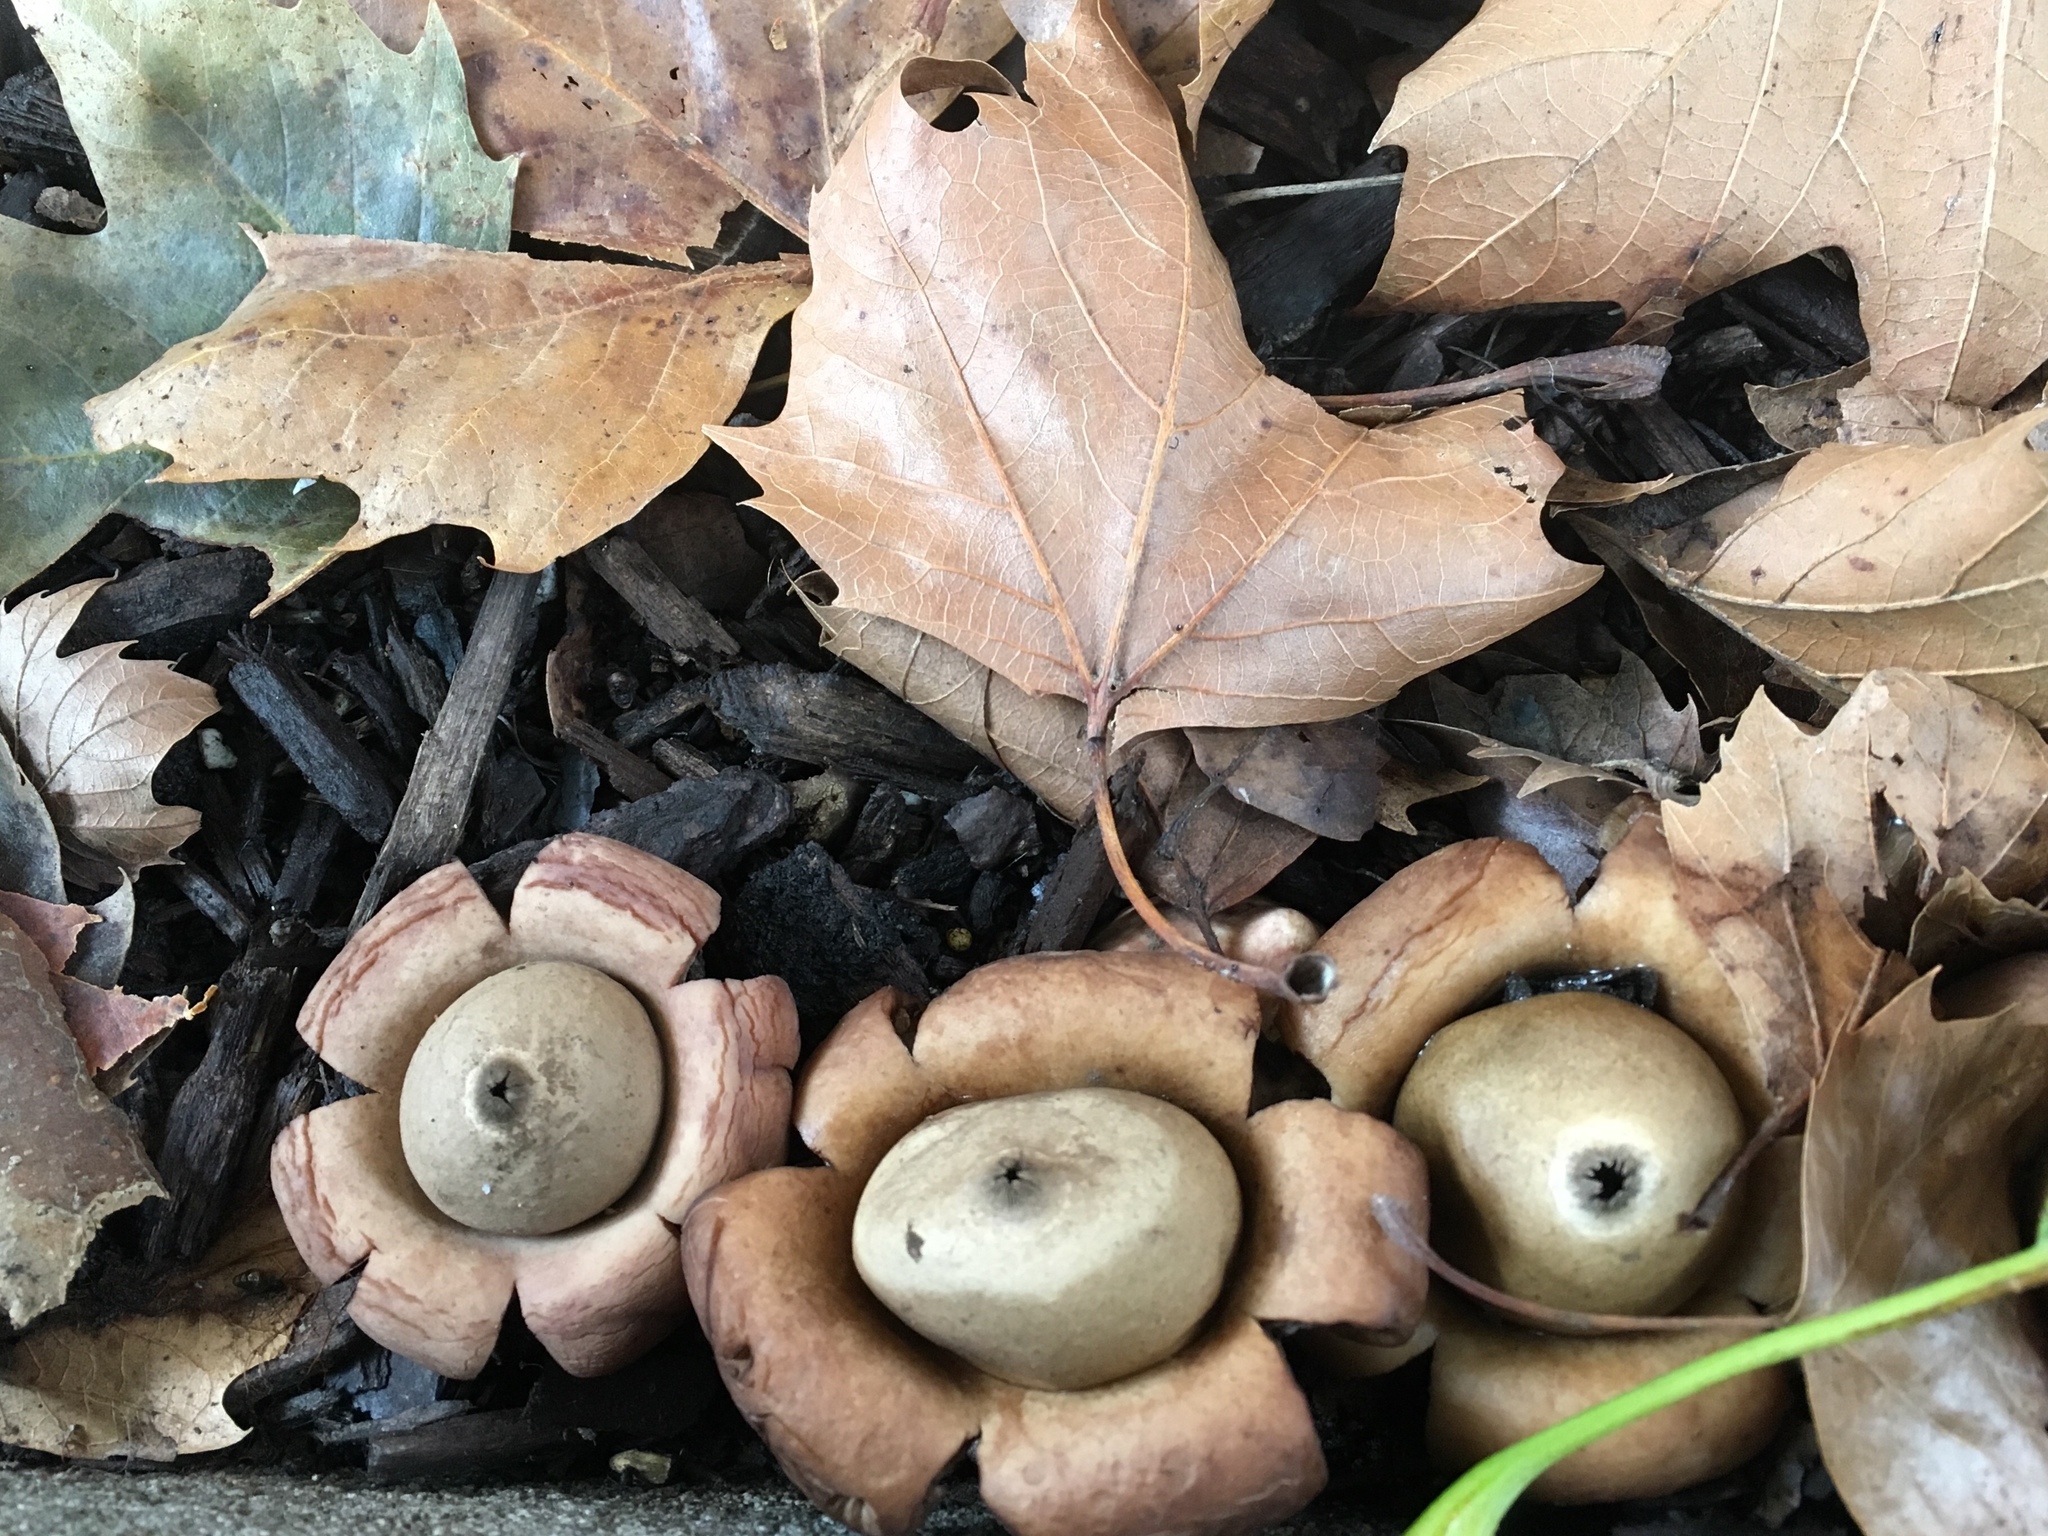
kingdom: Fungi
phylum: Basidiomycota
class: Agaricomycetes
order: Geastrales
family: Geastraceae
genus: Geastrum
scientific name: Geastrum saccatum
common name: Rounded earthstar
